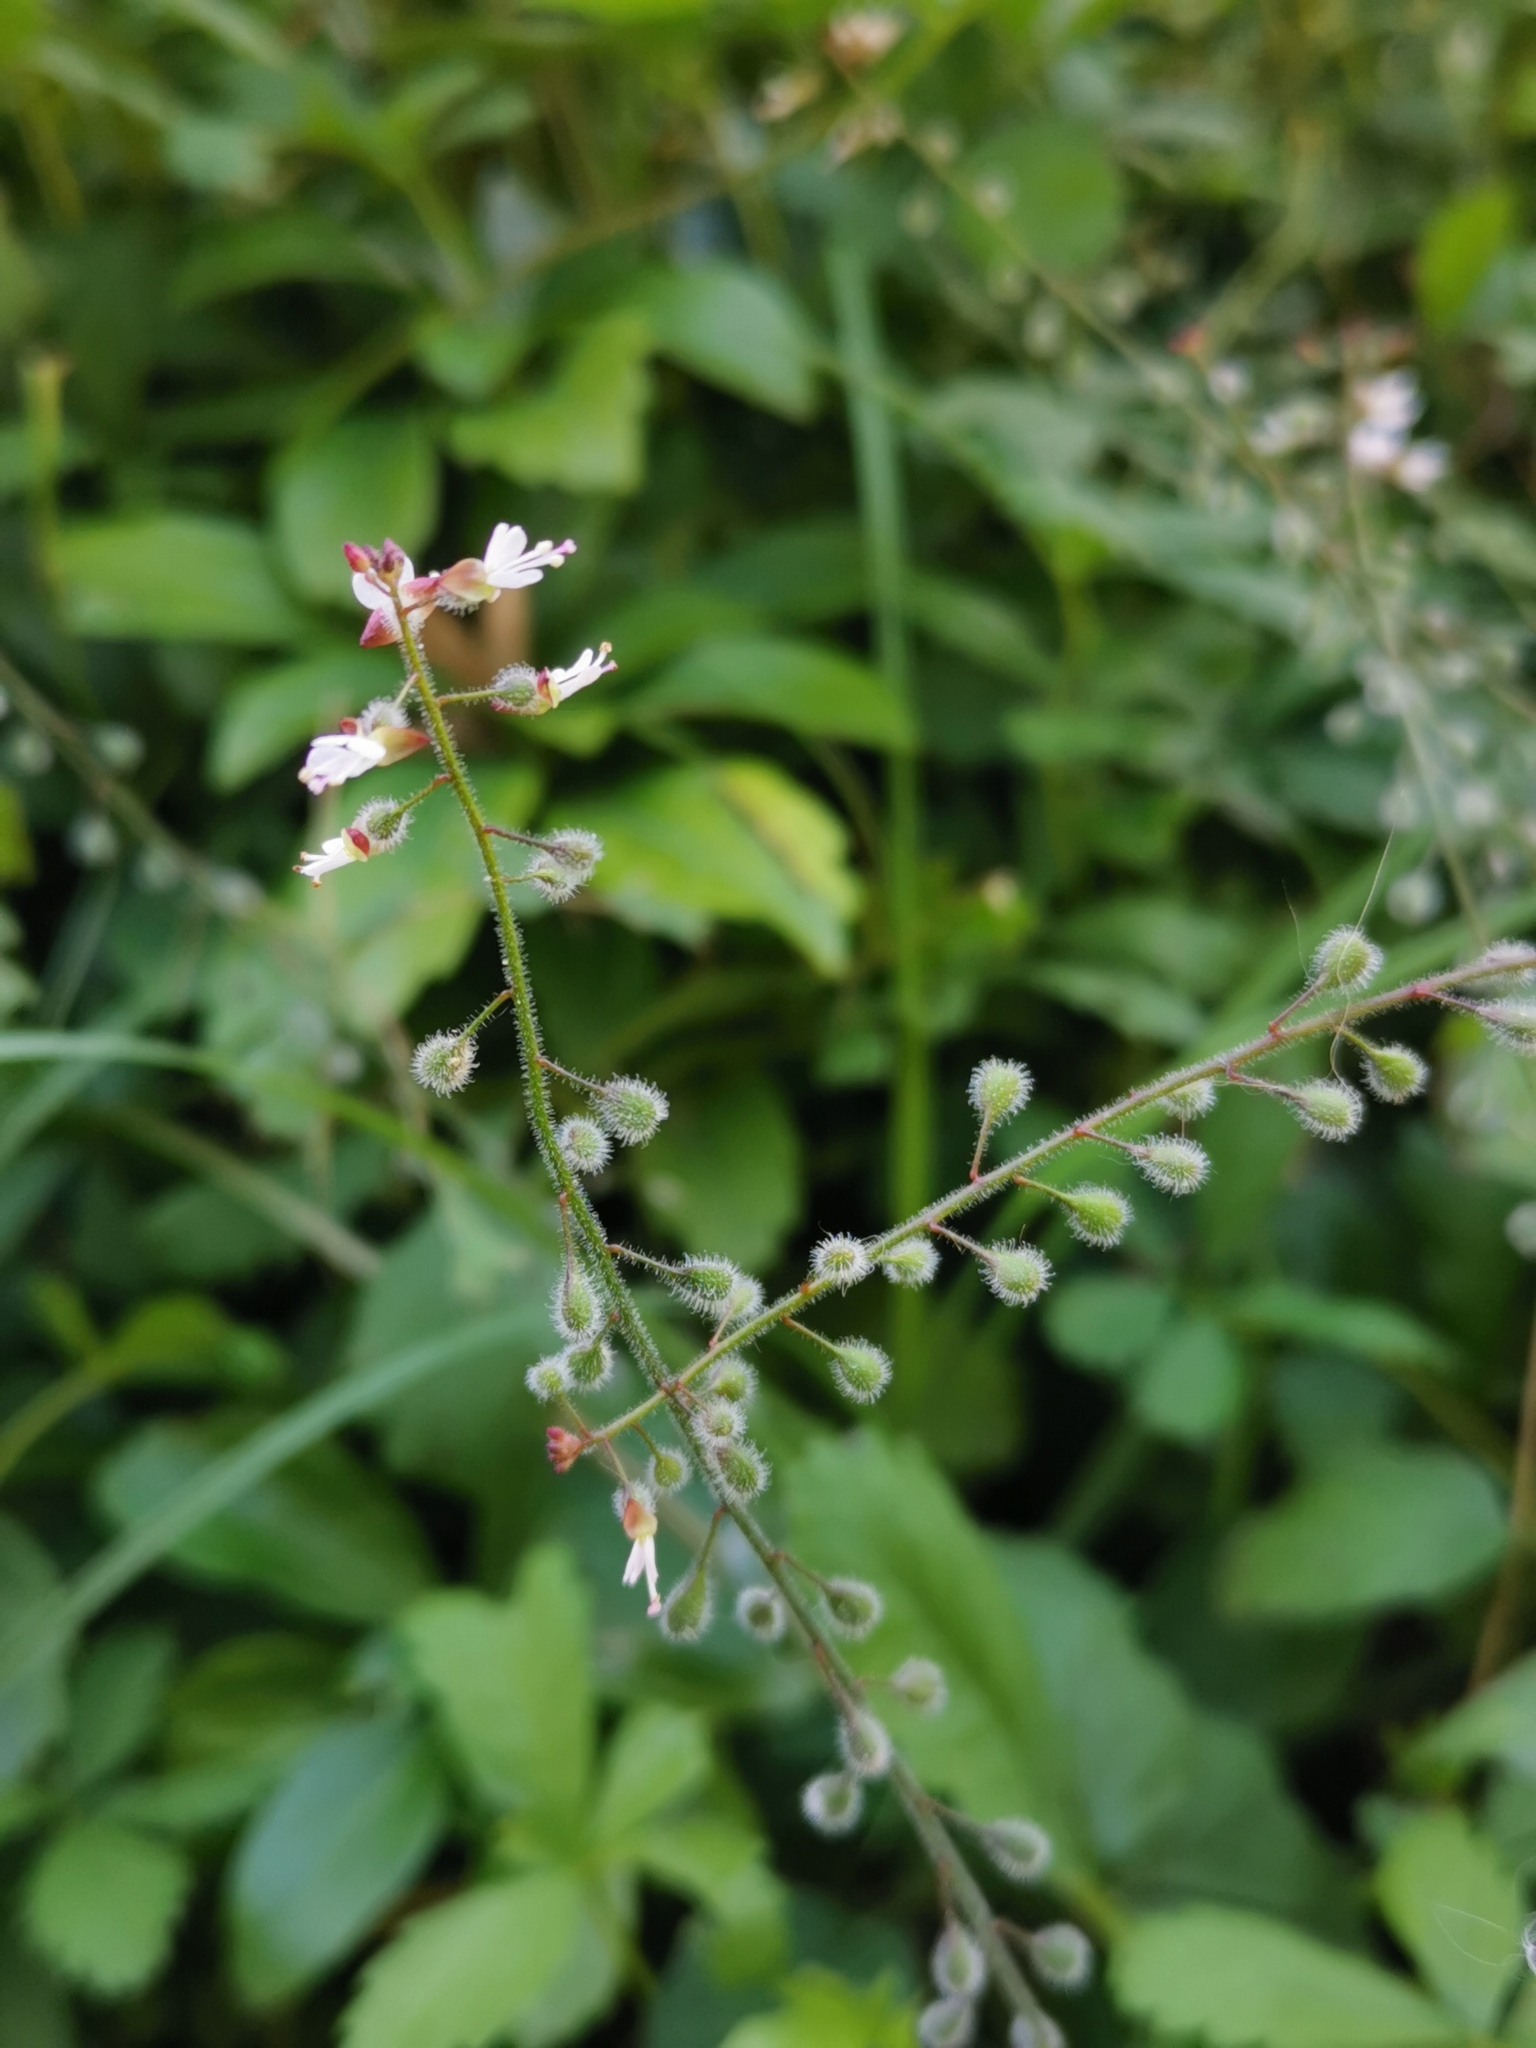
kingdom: Plantae
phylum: Tracheophyta
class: Magnoliopsida
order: Myrtales
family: Onagraceae
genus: Circaea
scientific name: Circaea lutetiana
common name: Enchanter's-nightshade
